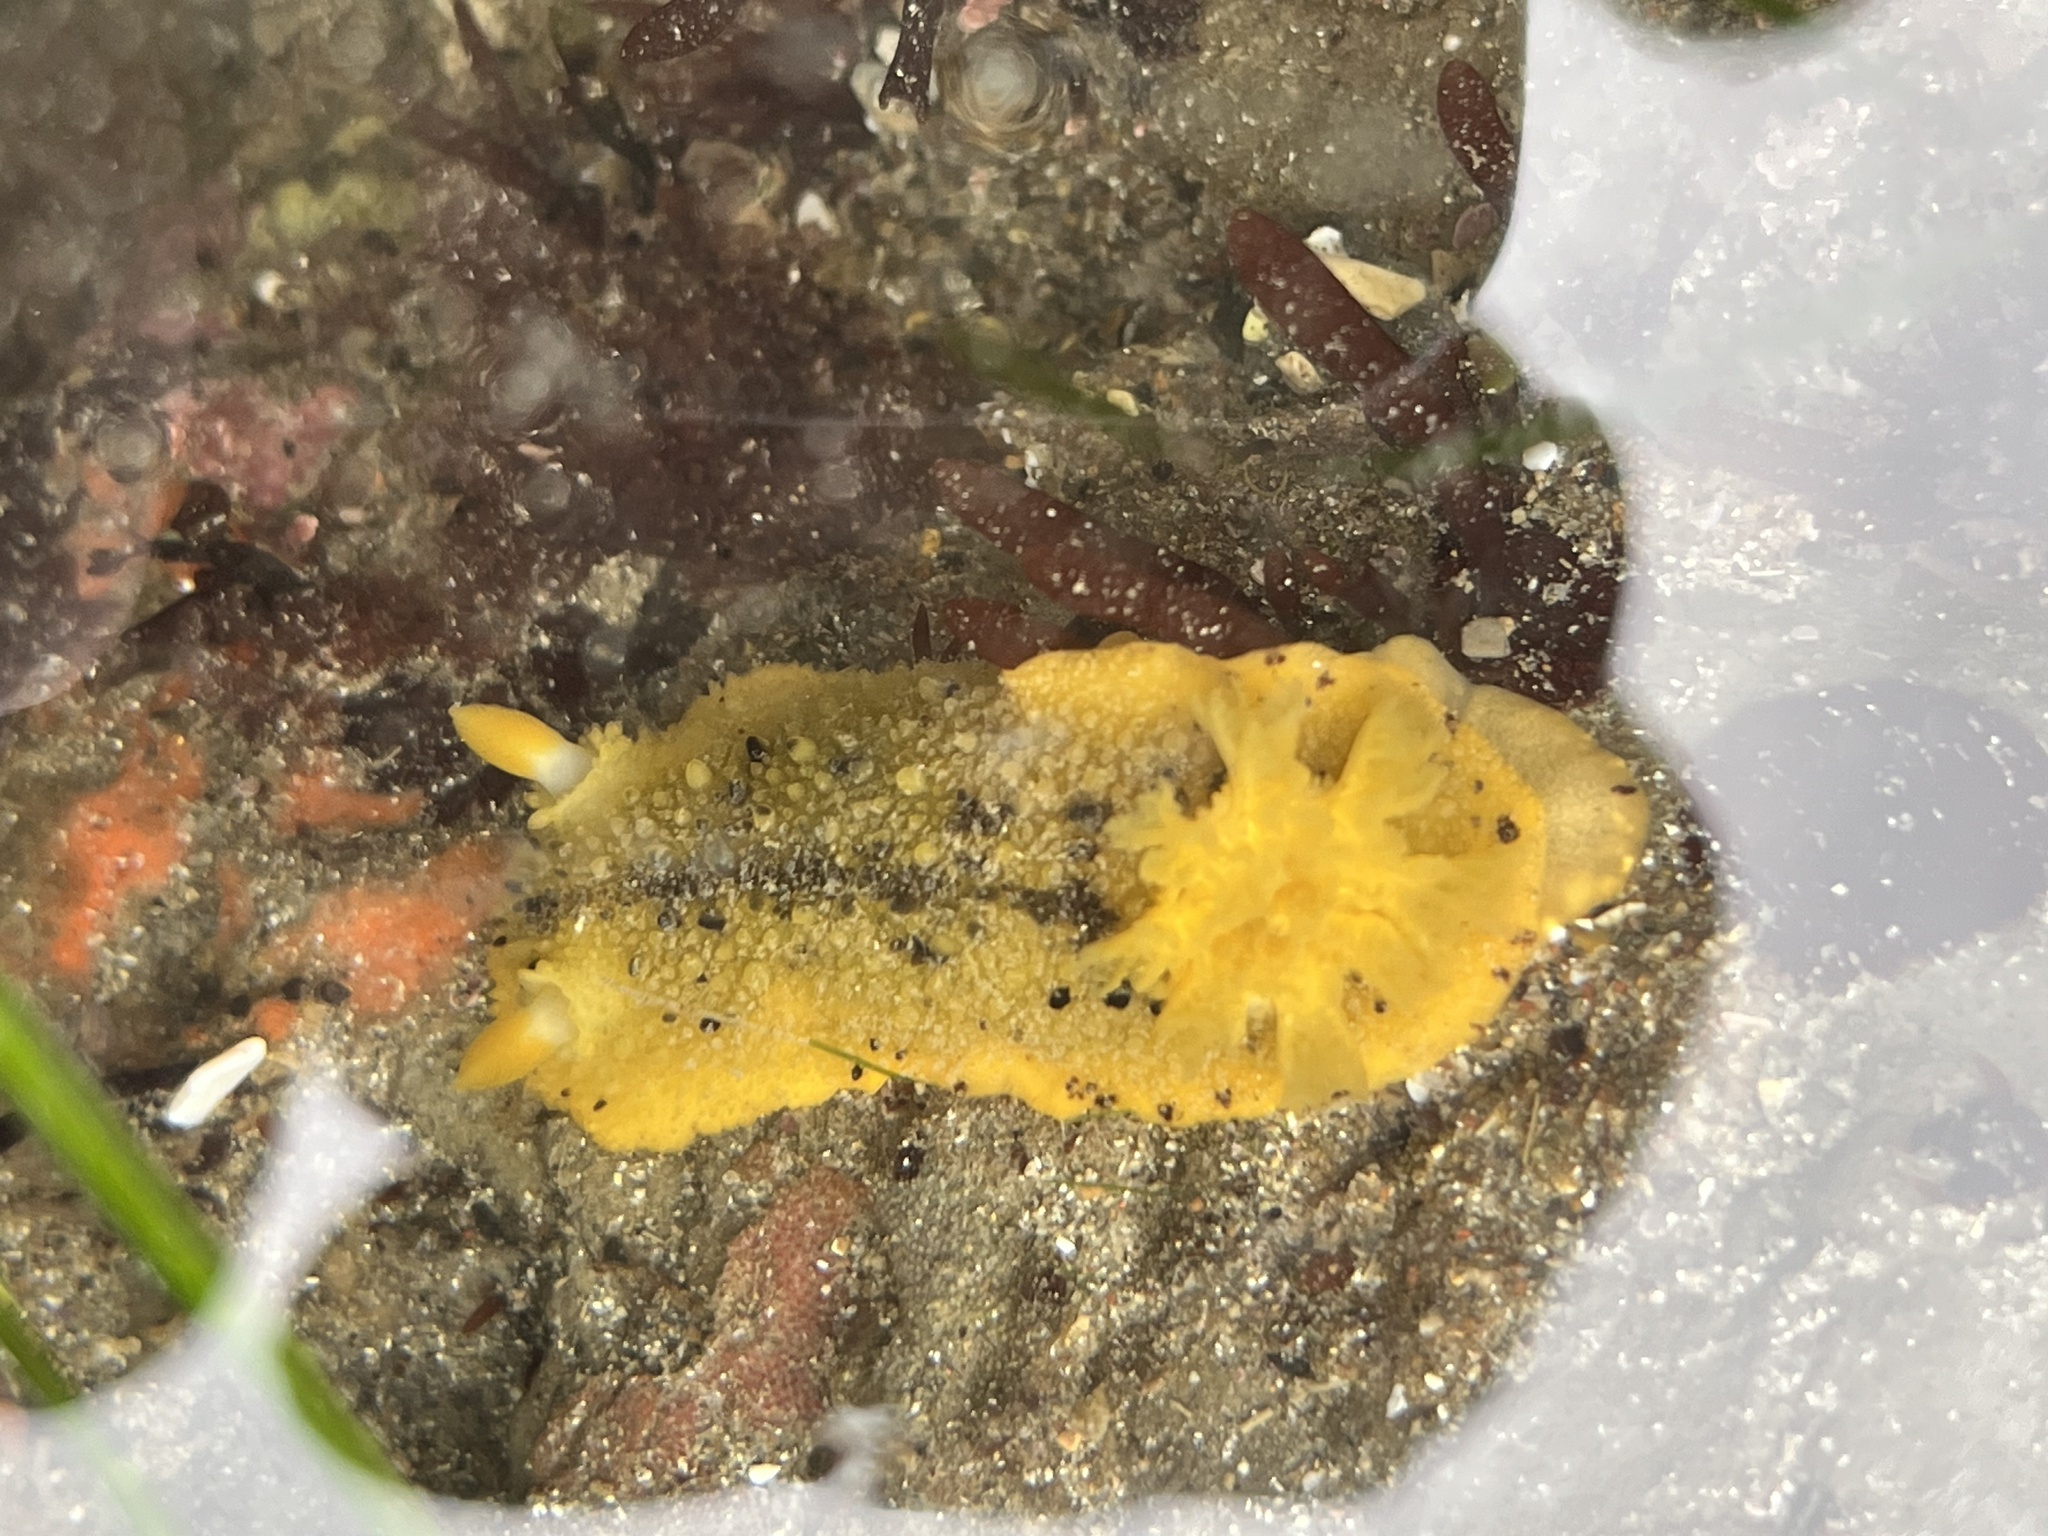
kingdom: Animalia
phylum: Mollusca
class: Gastropoda
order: Nudibranchia
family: Dorididae
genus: Doris
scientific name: Doris montereyensis
